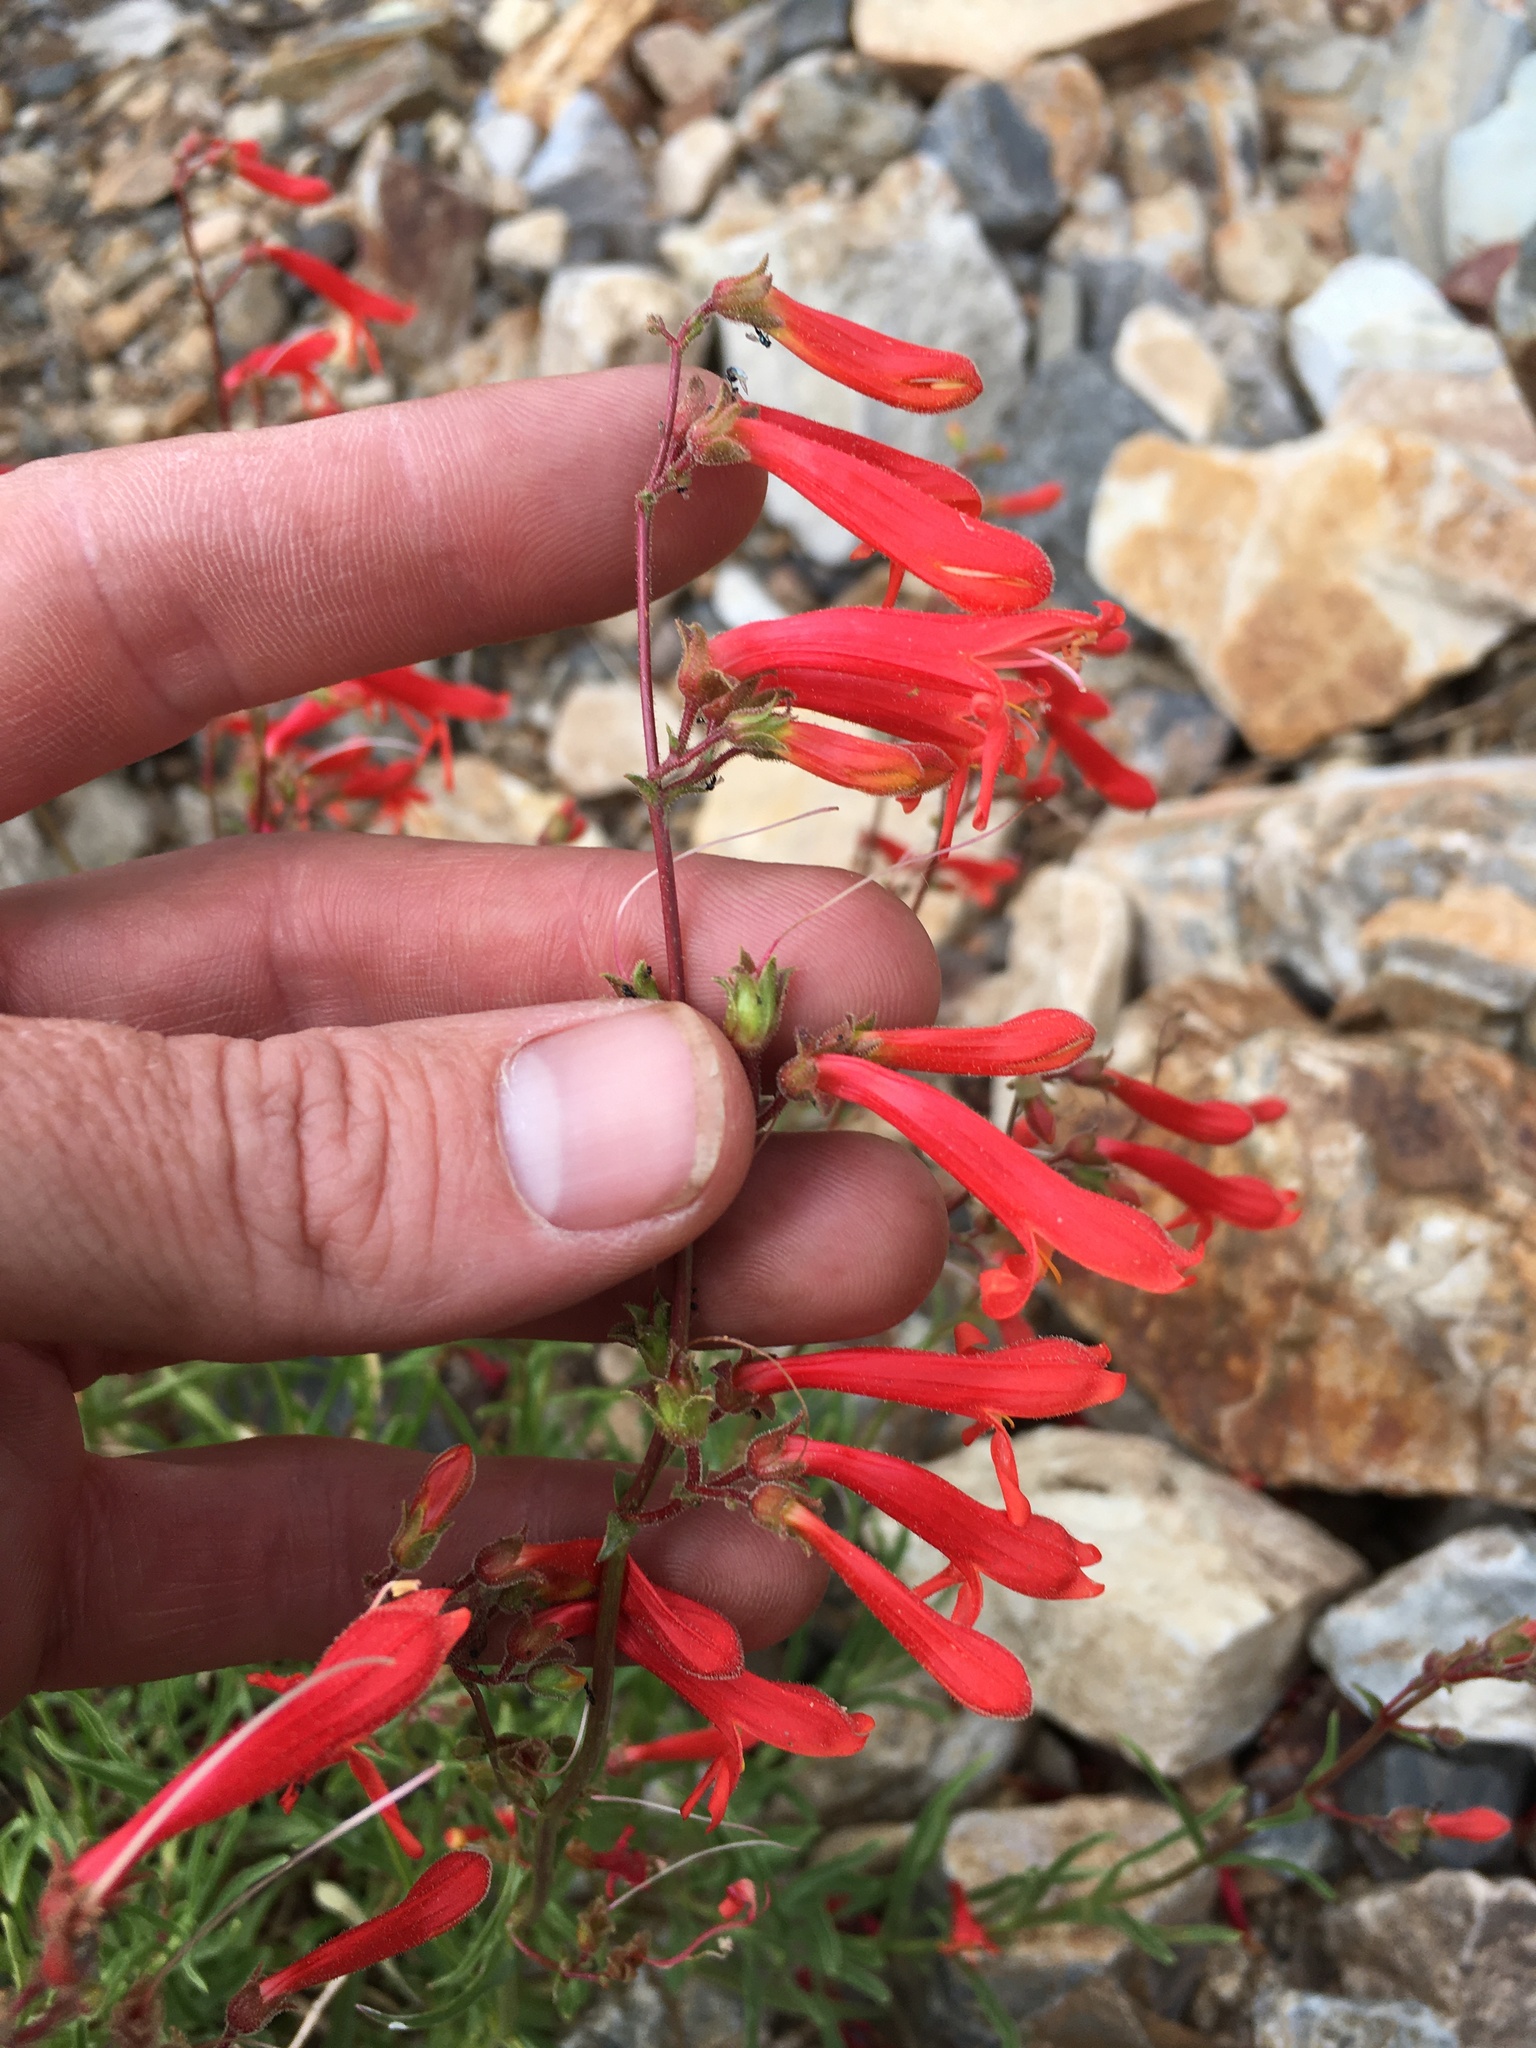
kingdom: Plantae
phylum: Tracheophyta
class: Magnoliopsida
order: Lamiales
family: Plantaginaceae
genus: Penstemon
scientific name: Penstemon rostriflorus
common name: Bridges's penstemon
